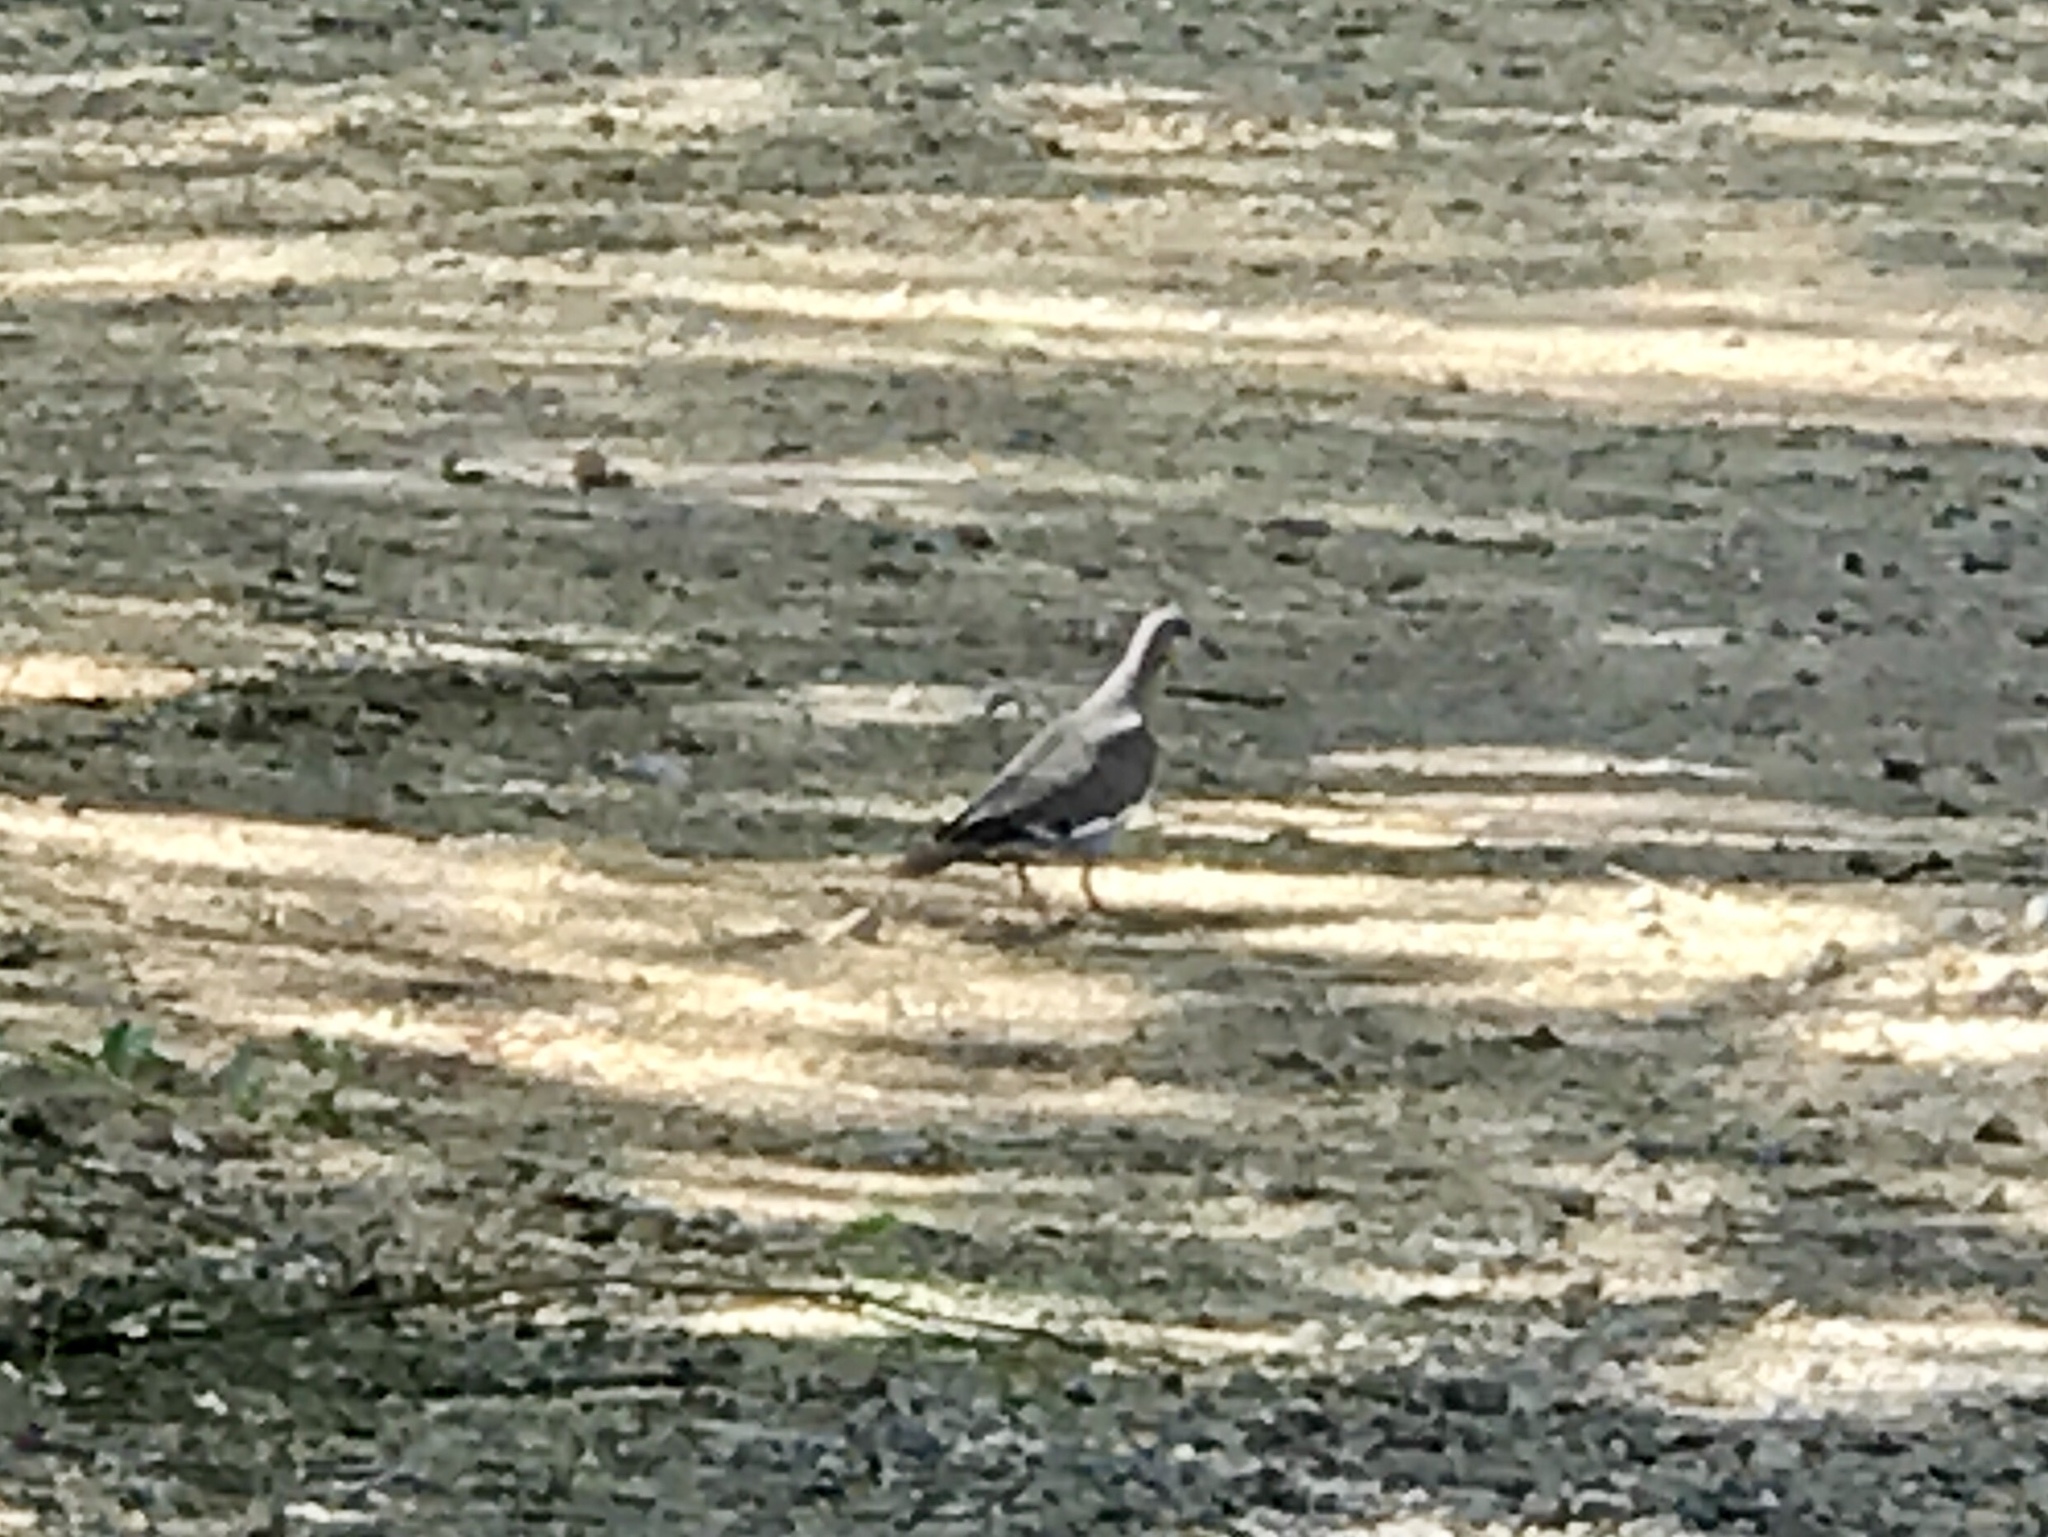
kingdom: Animalia
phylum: Chordata
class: Aves
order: Columbiformes
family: Columbidae
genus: Zenaida
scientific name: Zenaida asiatica
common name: White-winged dove
